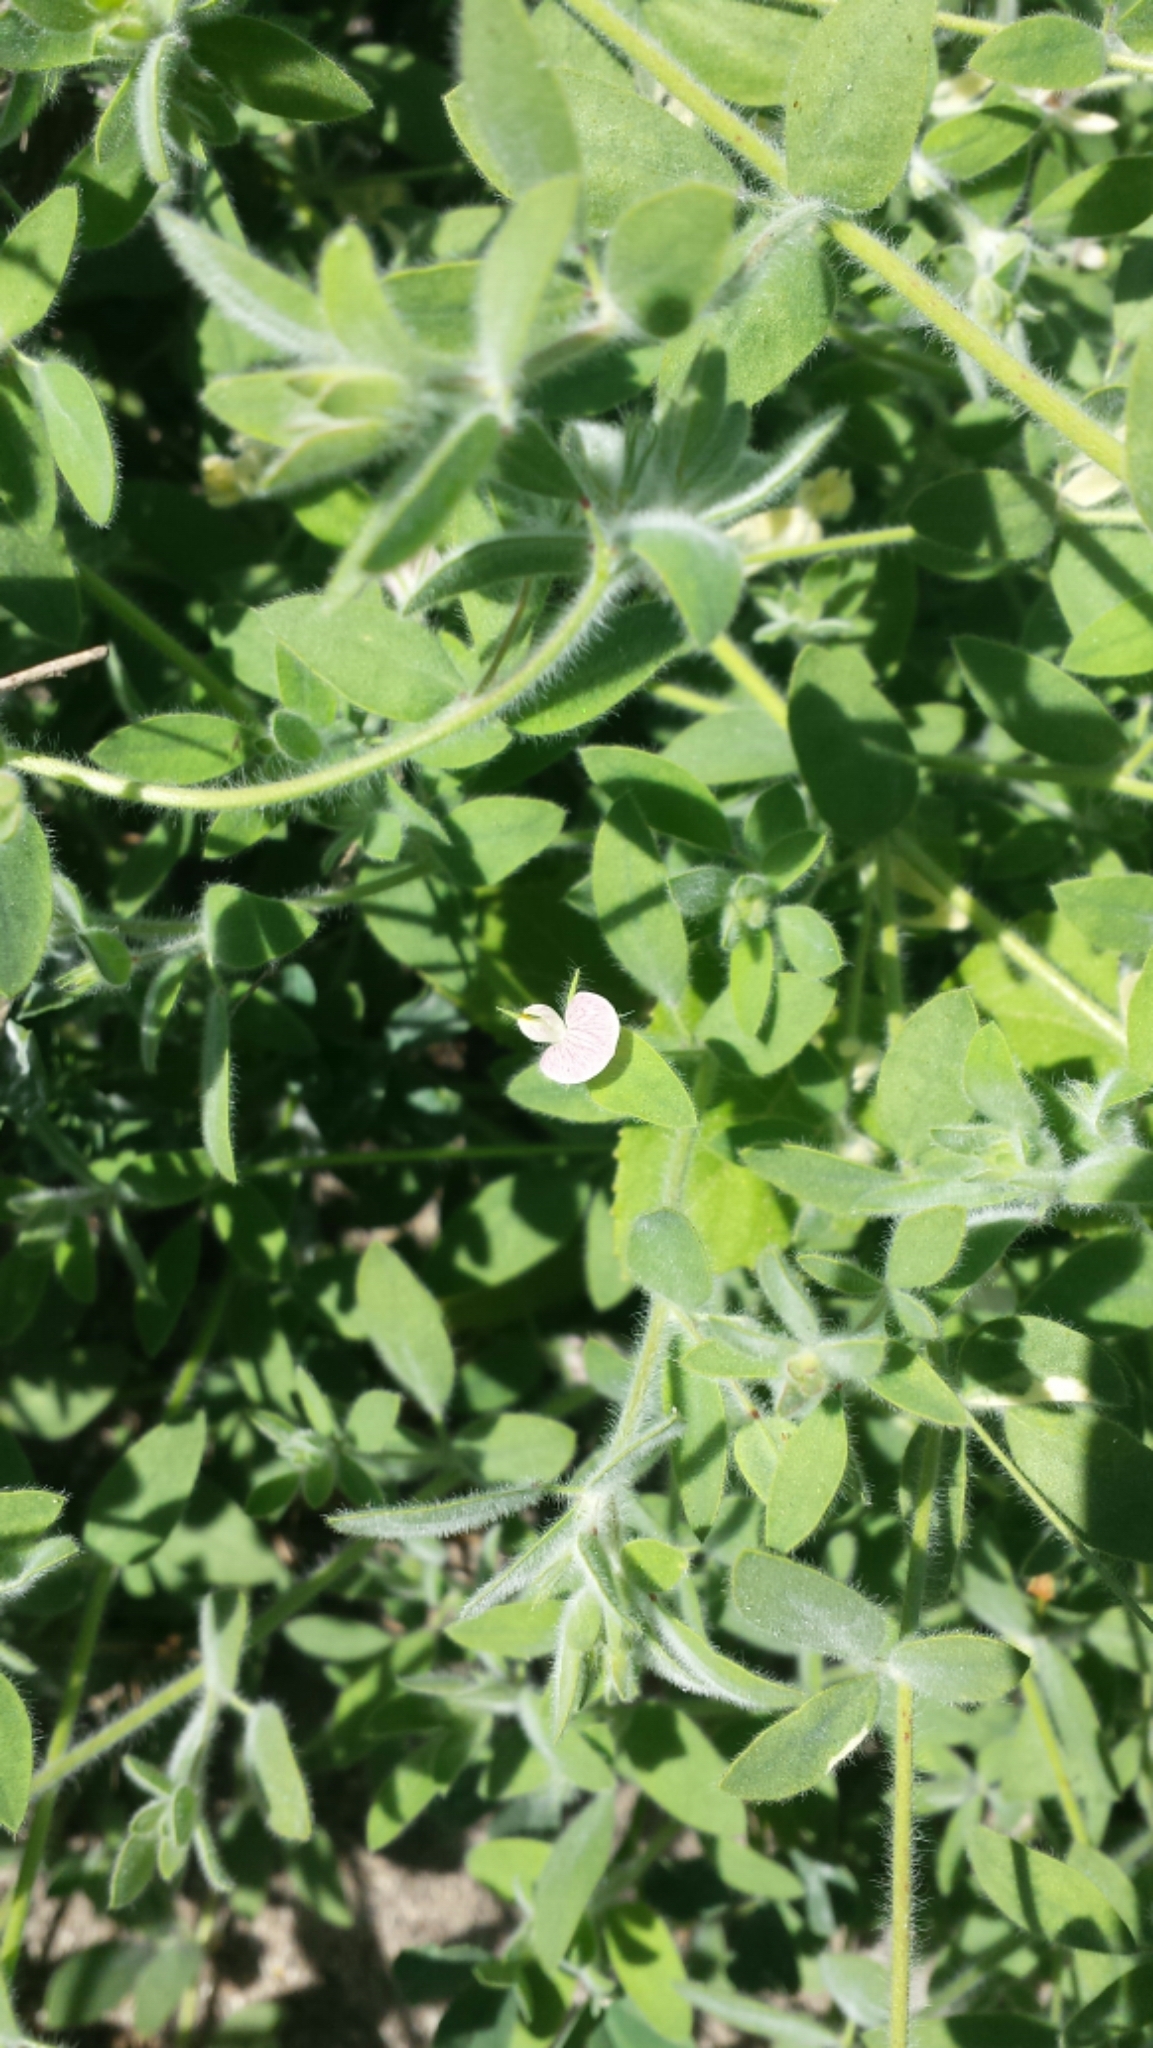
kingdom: Plantae
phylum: Tracheophyta
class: Magnoliopsida
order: Fabales
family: Fabaceae
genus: Acmispon
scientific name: Acmispon americanus
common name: American bird's-foot trefoil
